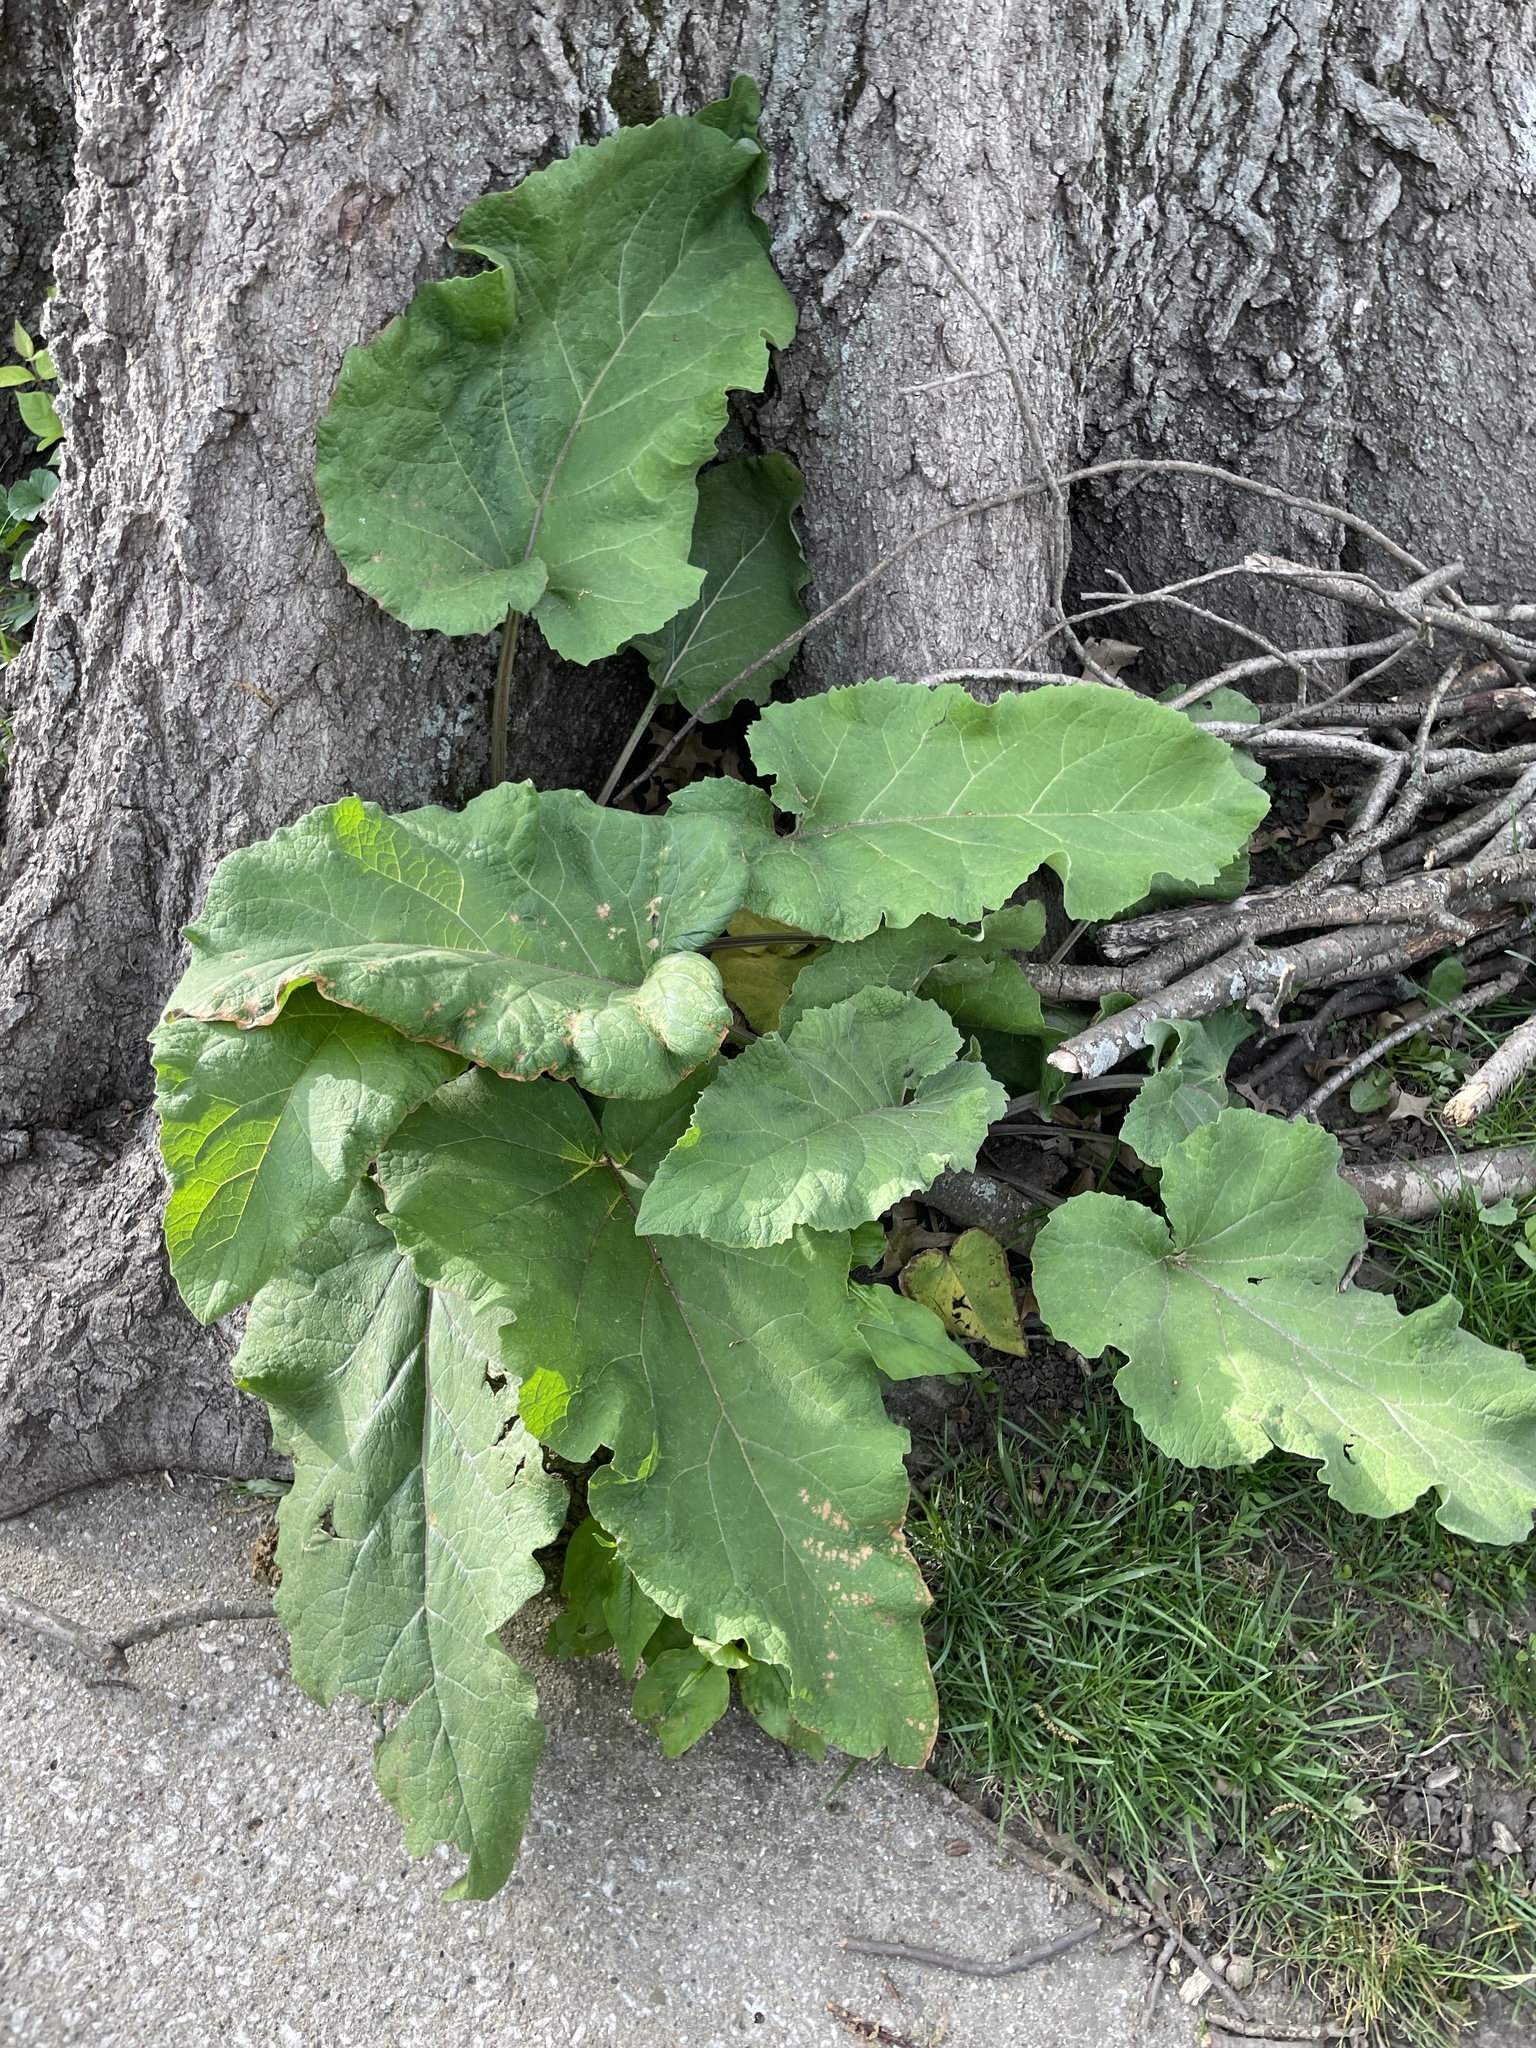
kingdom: Plantae
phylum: Tracheophyta
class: Magnoliopsida
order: Asterales
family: Asteraceae
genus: Arctium
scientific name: Arctium
